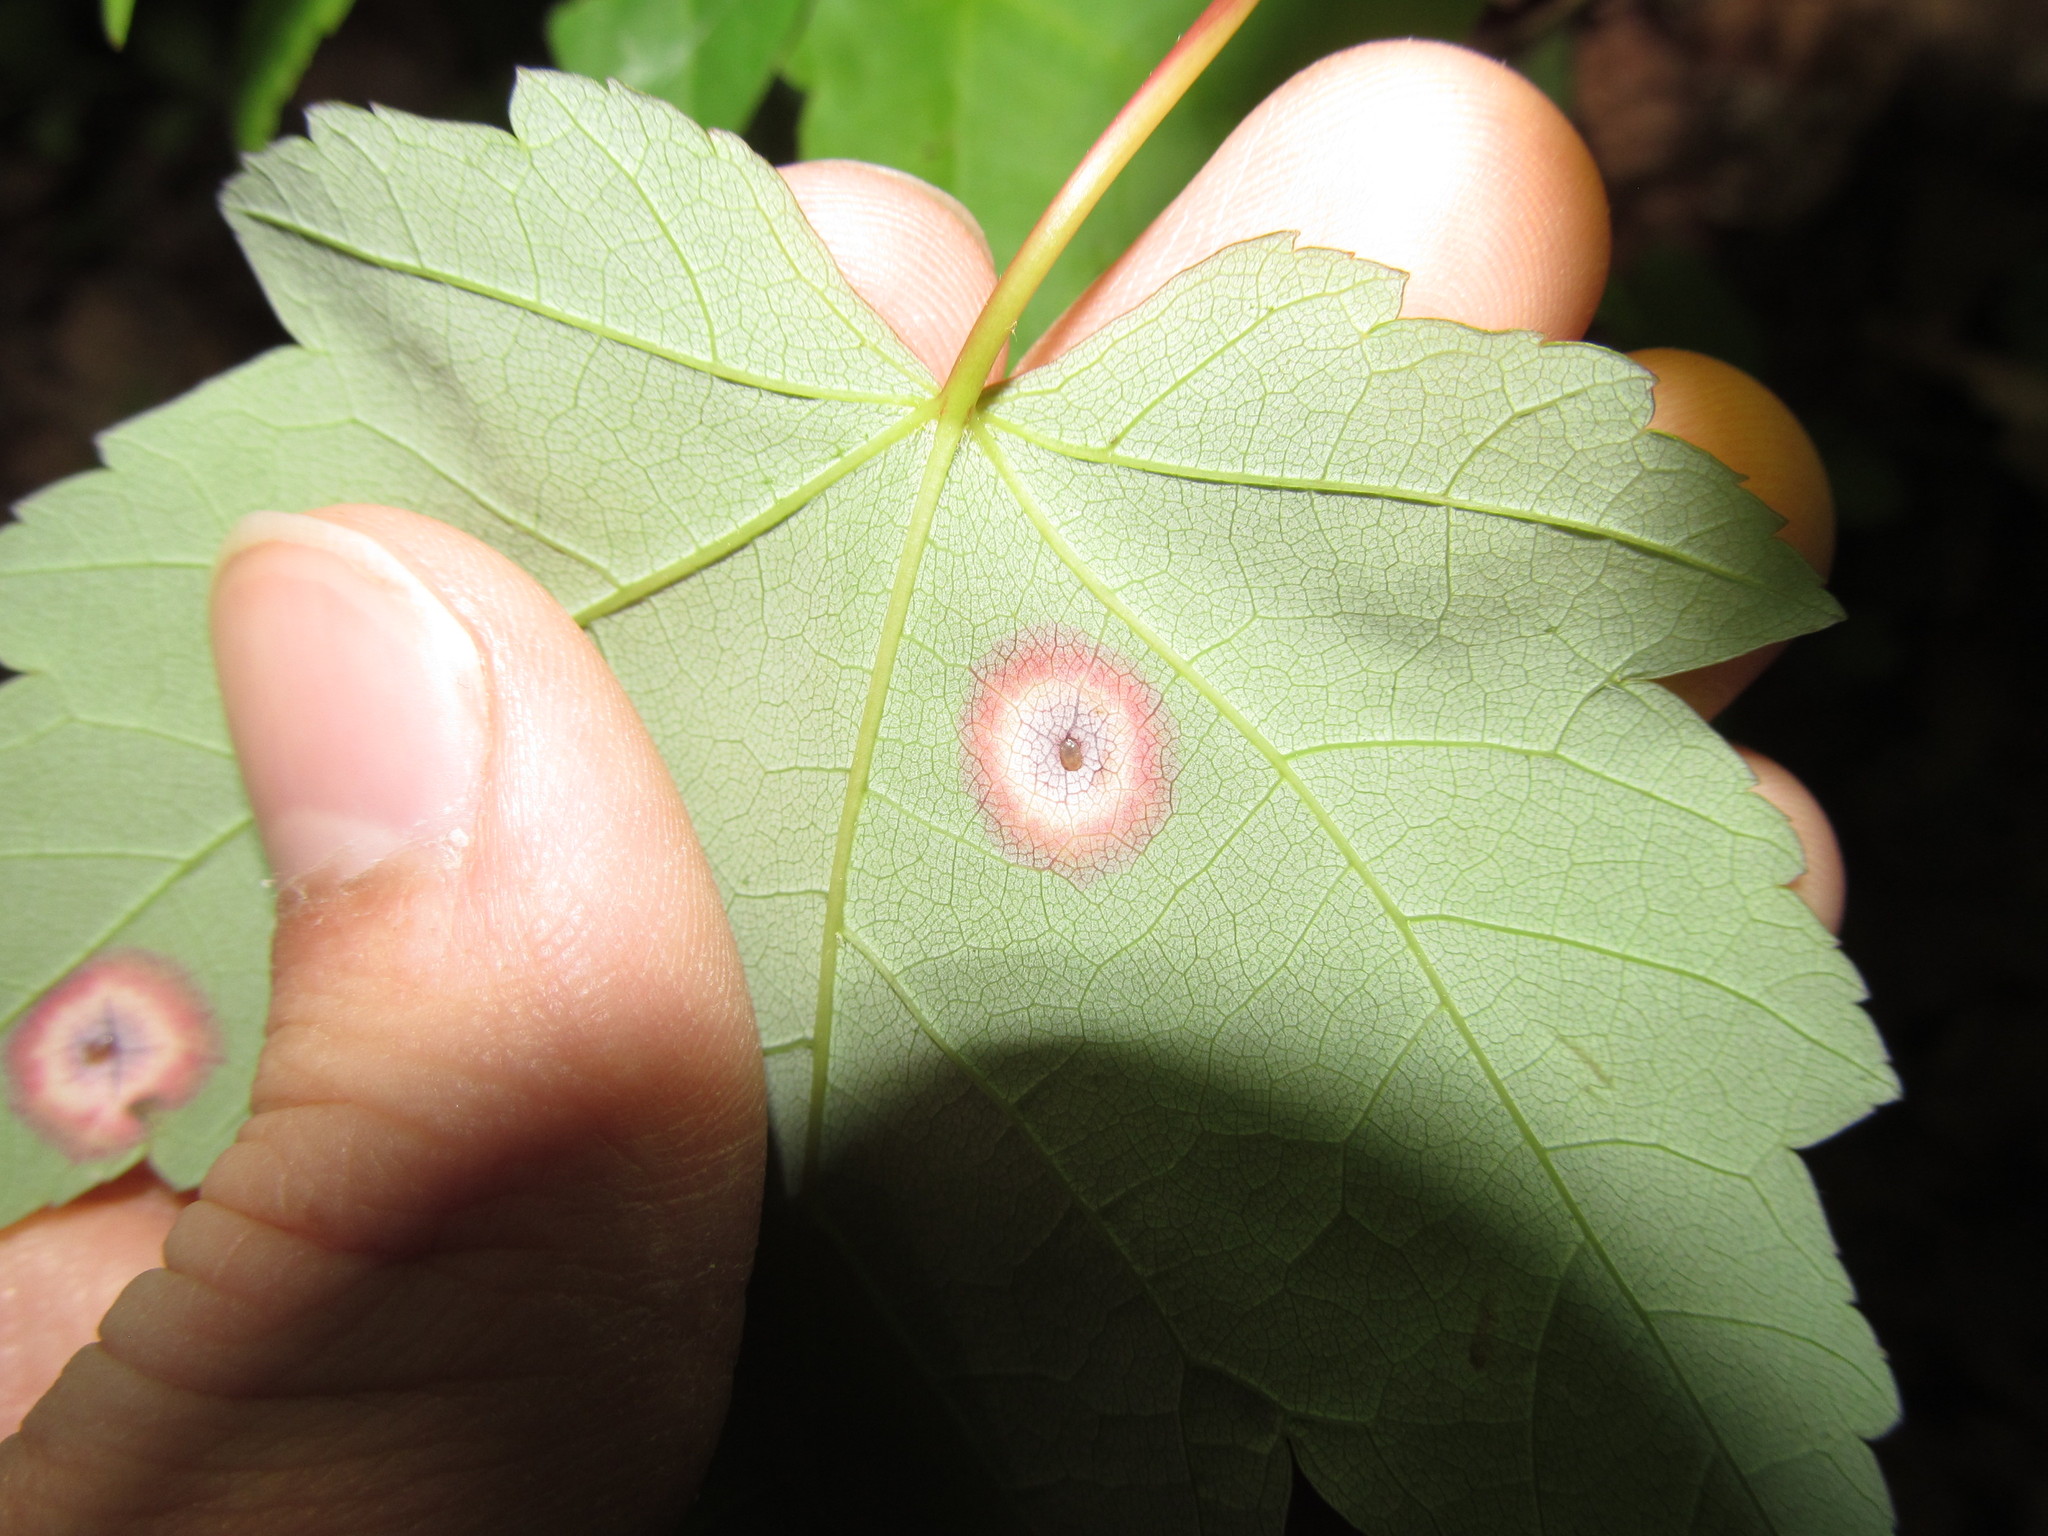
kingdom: Animalia
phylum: Arthropoda
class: Insecta
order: Diptera
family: Cecidomyiidae
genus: Acericecis
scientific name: Acericecis ocellaris
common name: Ocellate gall midge
